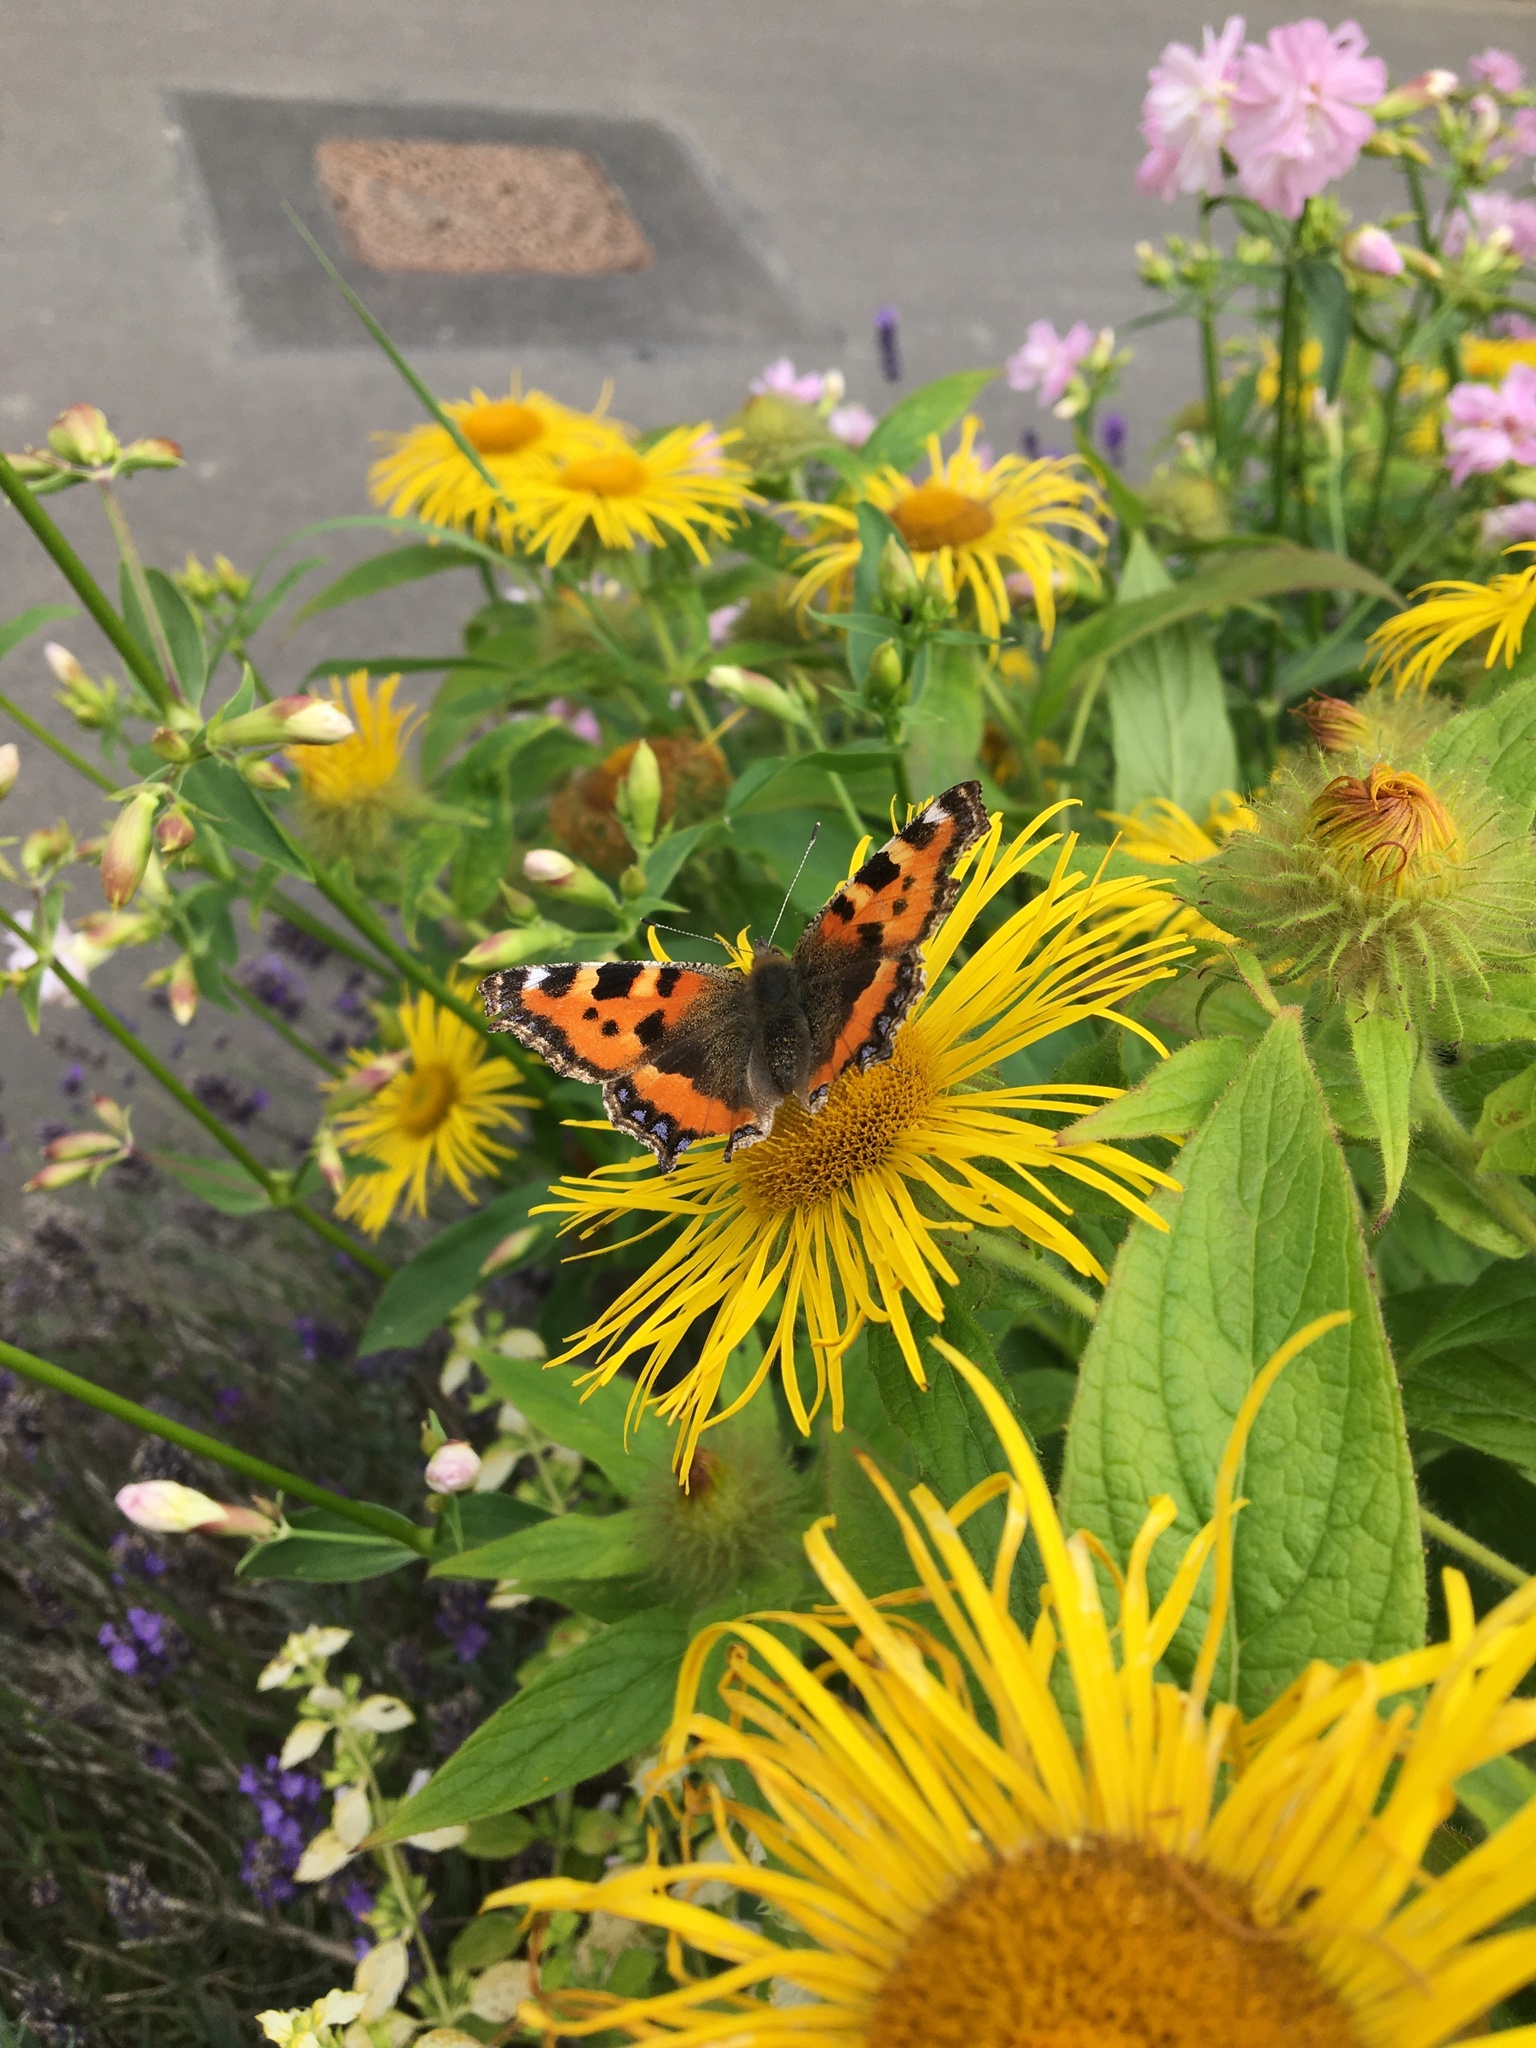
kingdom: Animalia
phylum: Arthropoda
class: Insecta
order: Lepidoptera
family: Nymphalidae
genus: Aglais
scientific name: Aglais urticae
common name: Small tortoiseshell
